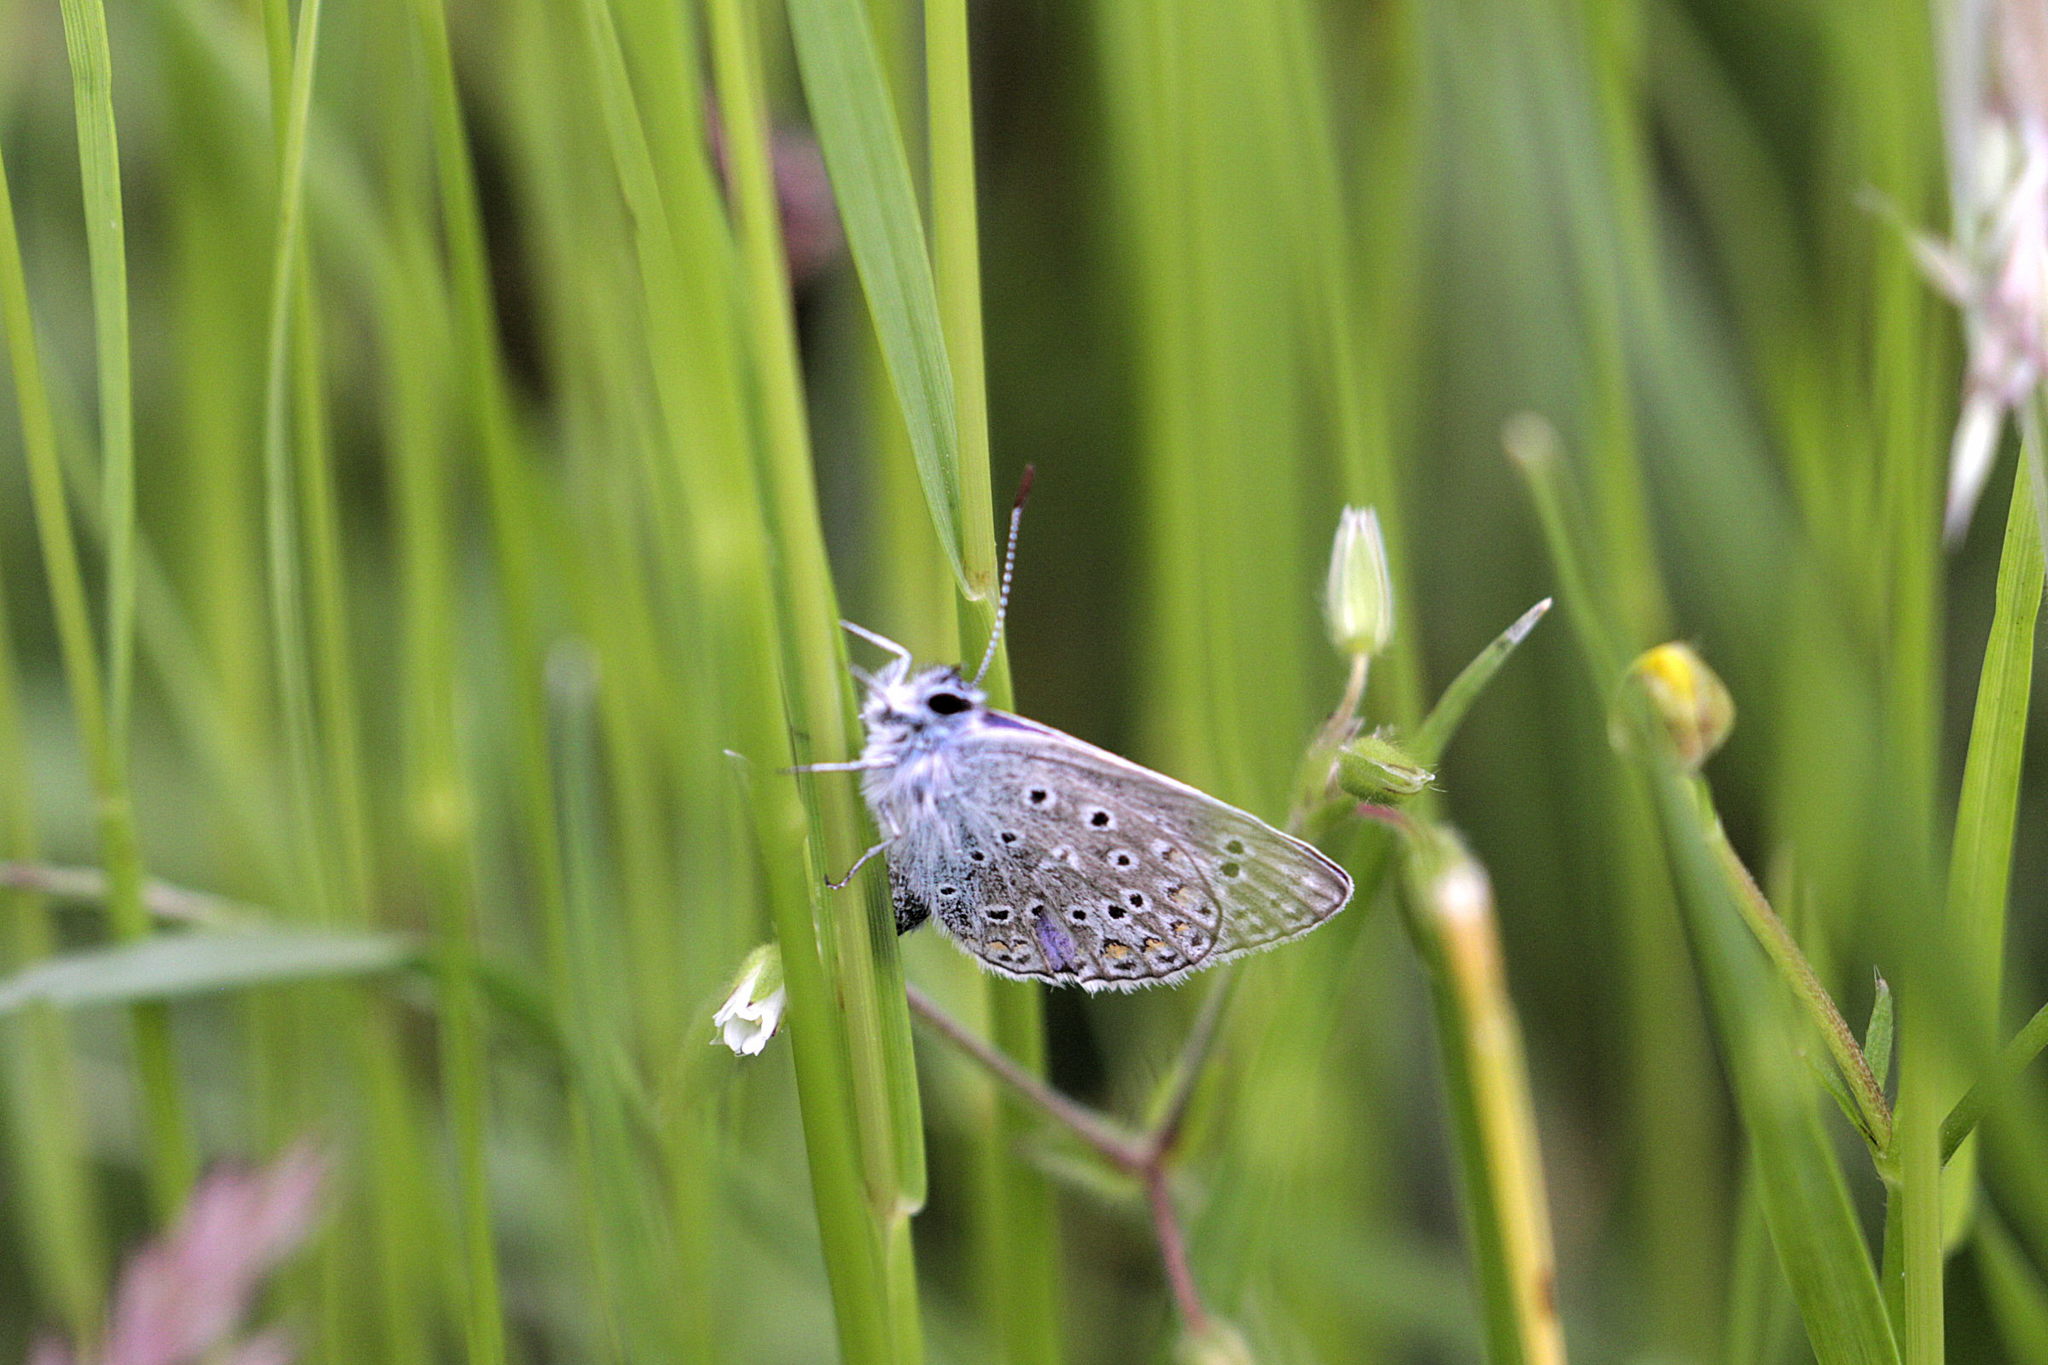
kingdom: Animalia
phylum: Arthropoda
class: Insecta
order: Lepidoptera
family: Lycaenidae
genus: Polyommatus
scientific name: Polyommatus icarus
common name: Common blue
